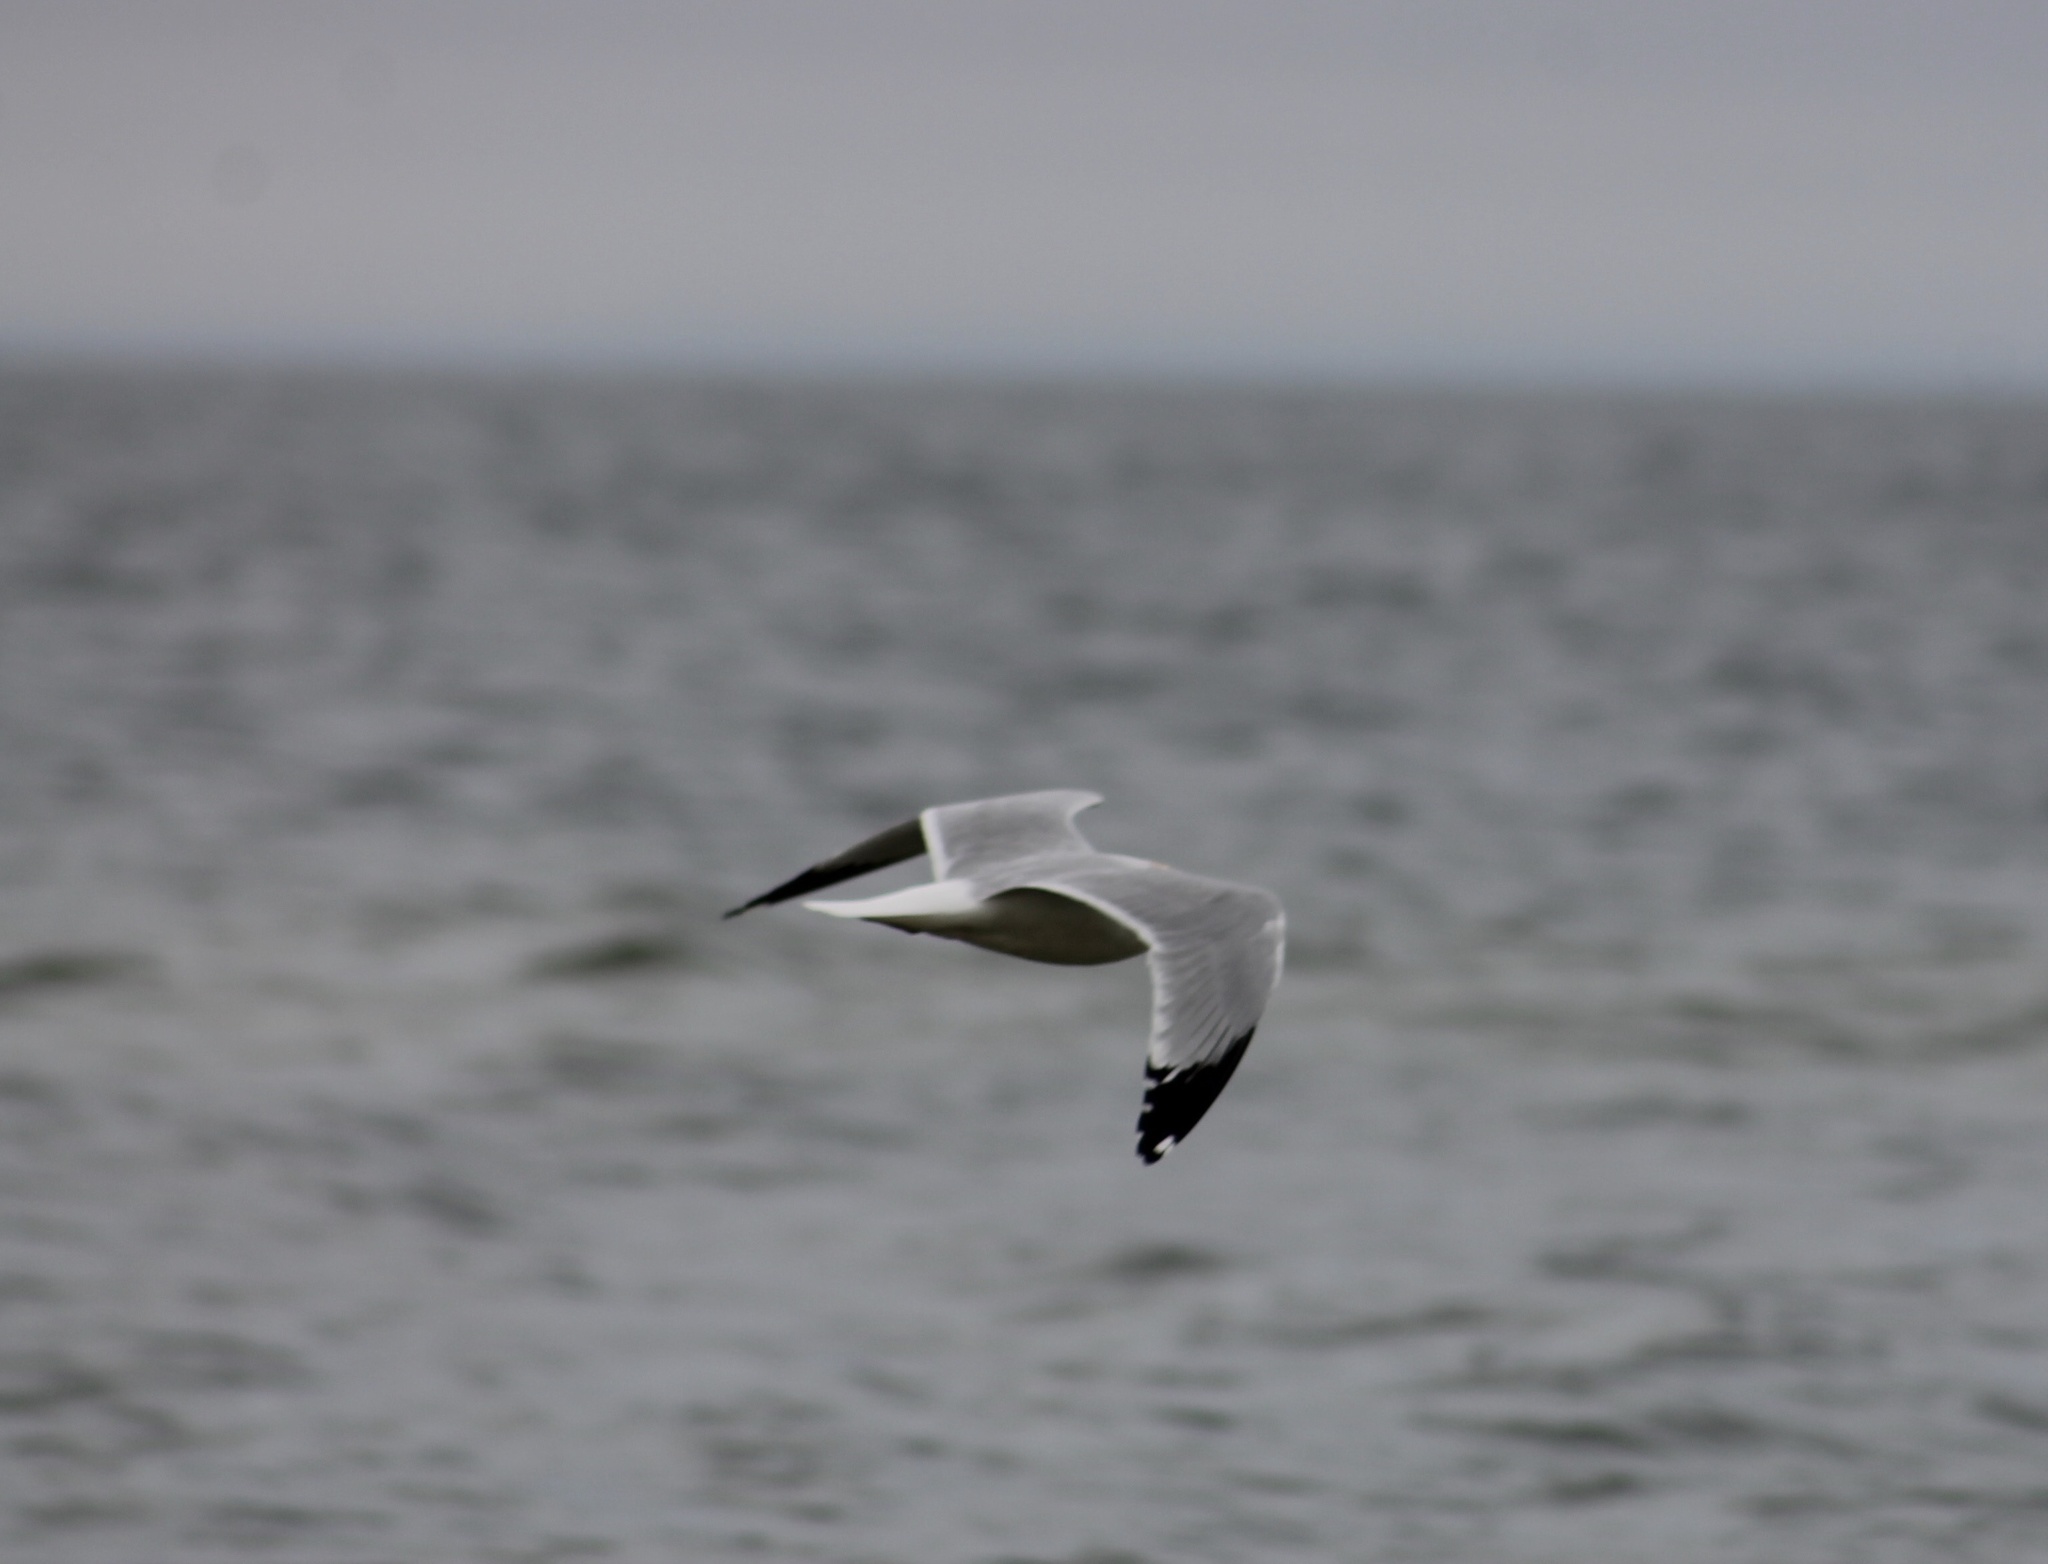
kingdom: Animalia
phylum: Chordata
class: Aves
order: Charadriiformes
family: Laridae
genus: Larus
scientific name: Larus delawarensis
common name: Ring-billed gull
